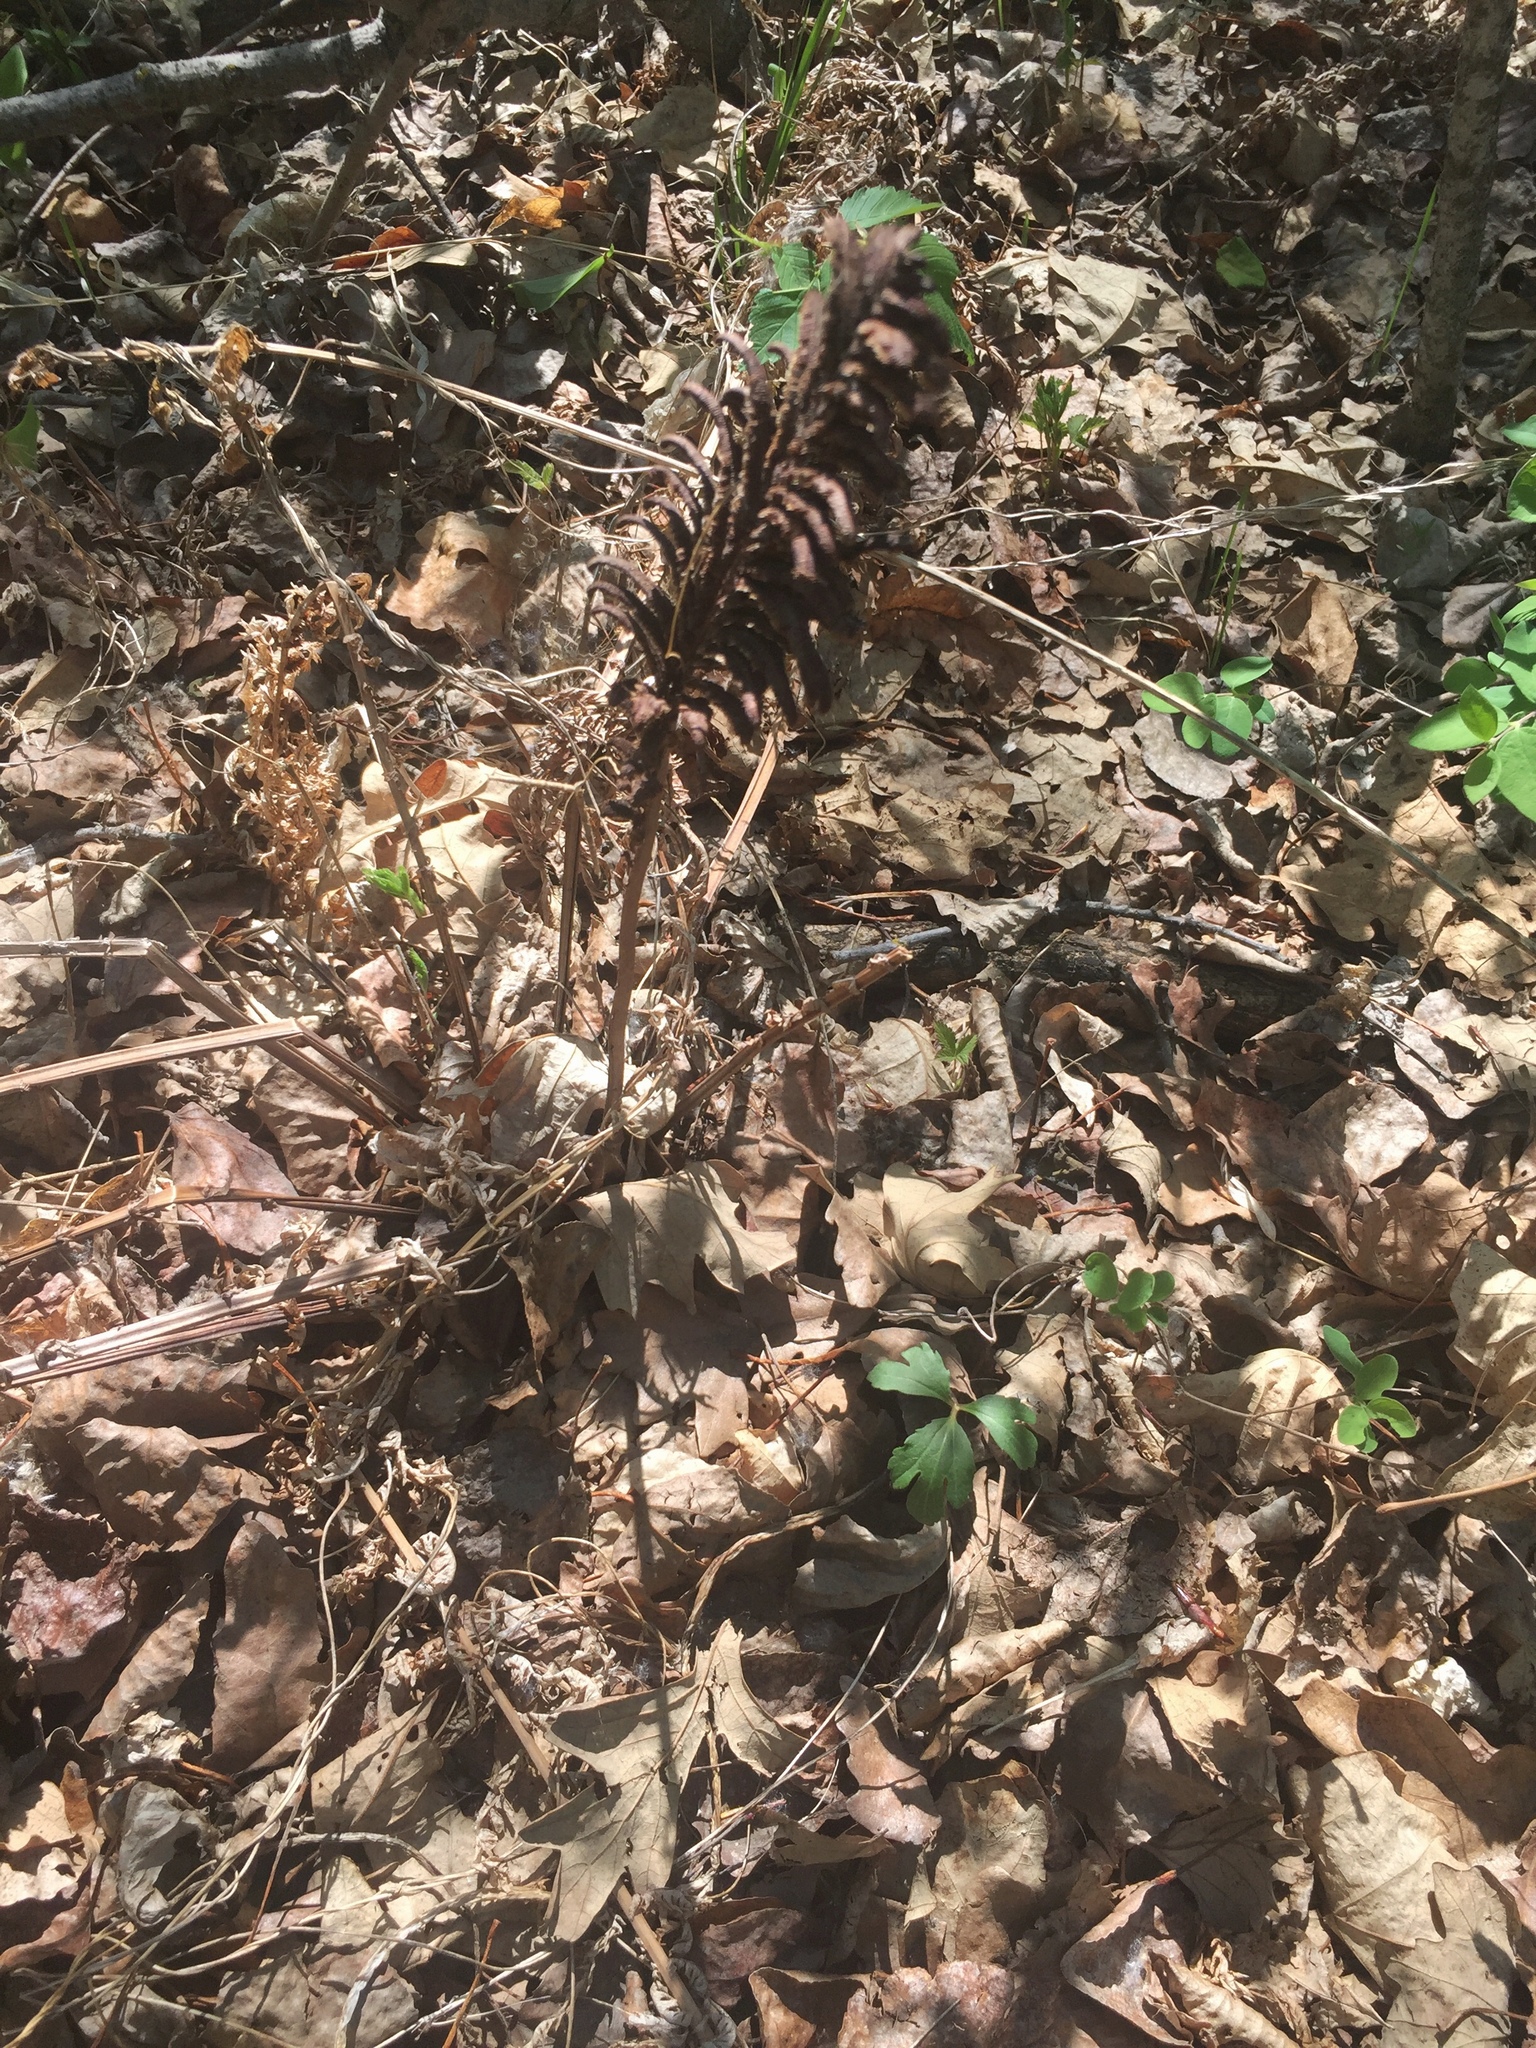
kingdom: Plantae
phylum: Tracheophyta
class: Polypodiopsida
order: Polypodiales
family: Onocleaceae
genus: Matteuccia
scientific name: Matteuccia struthiopteris
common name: Ostrich fern
